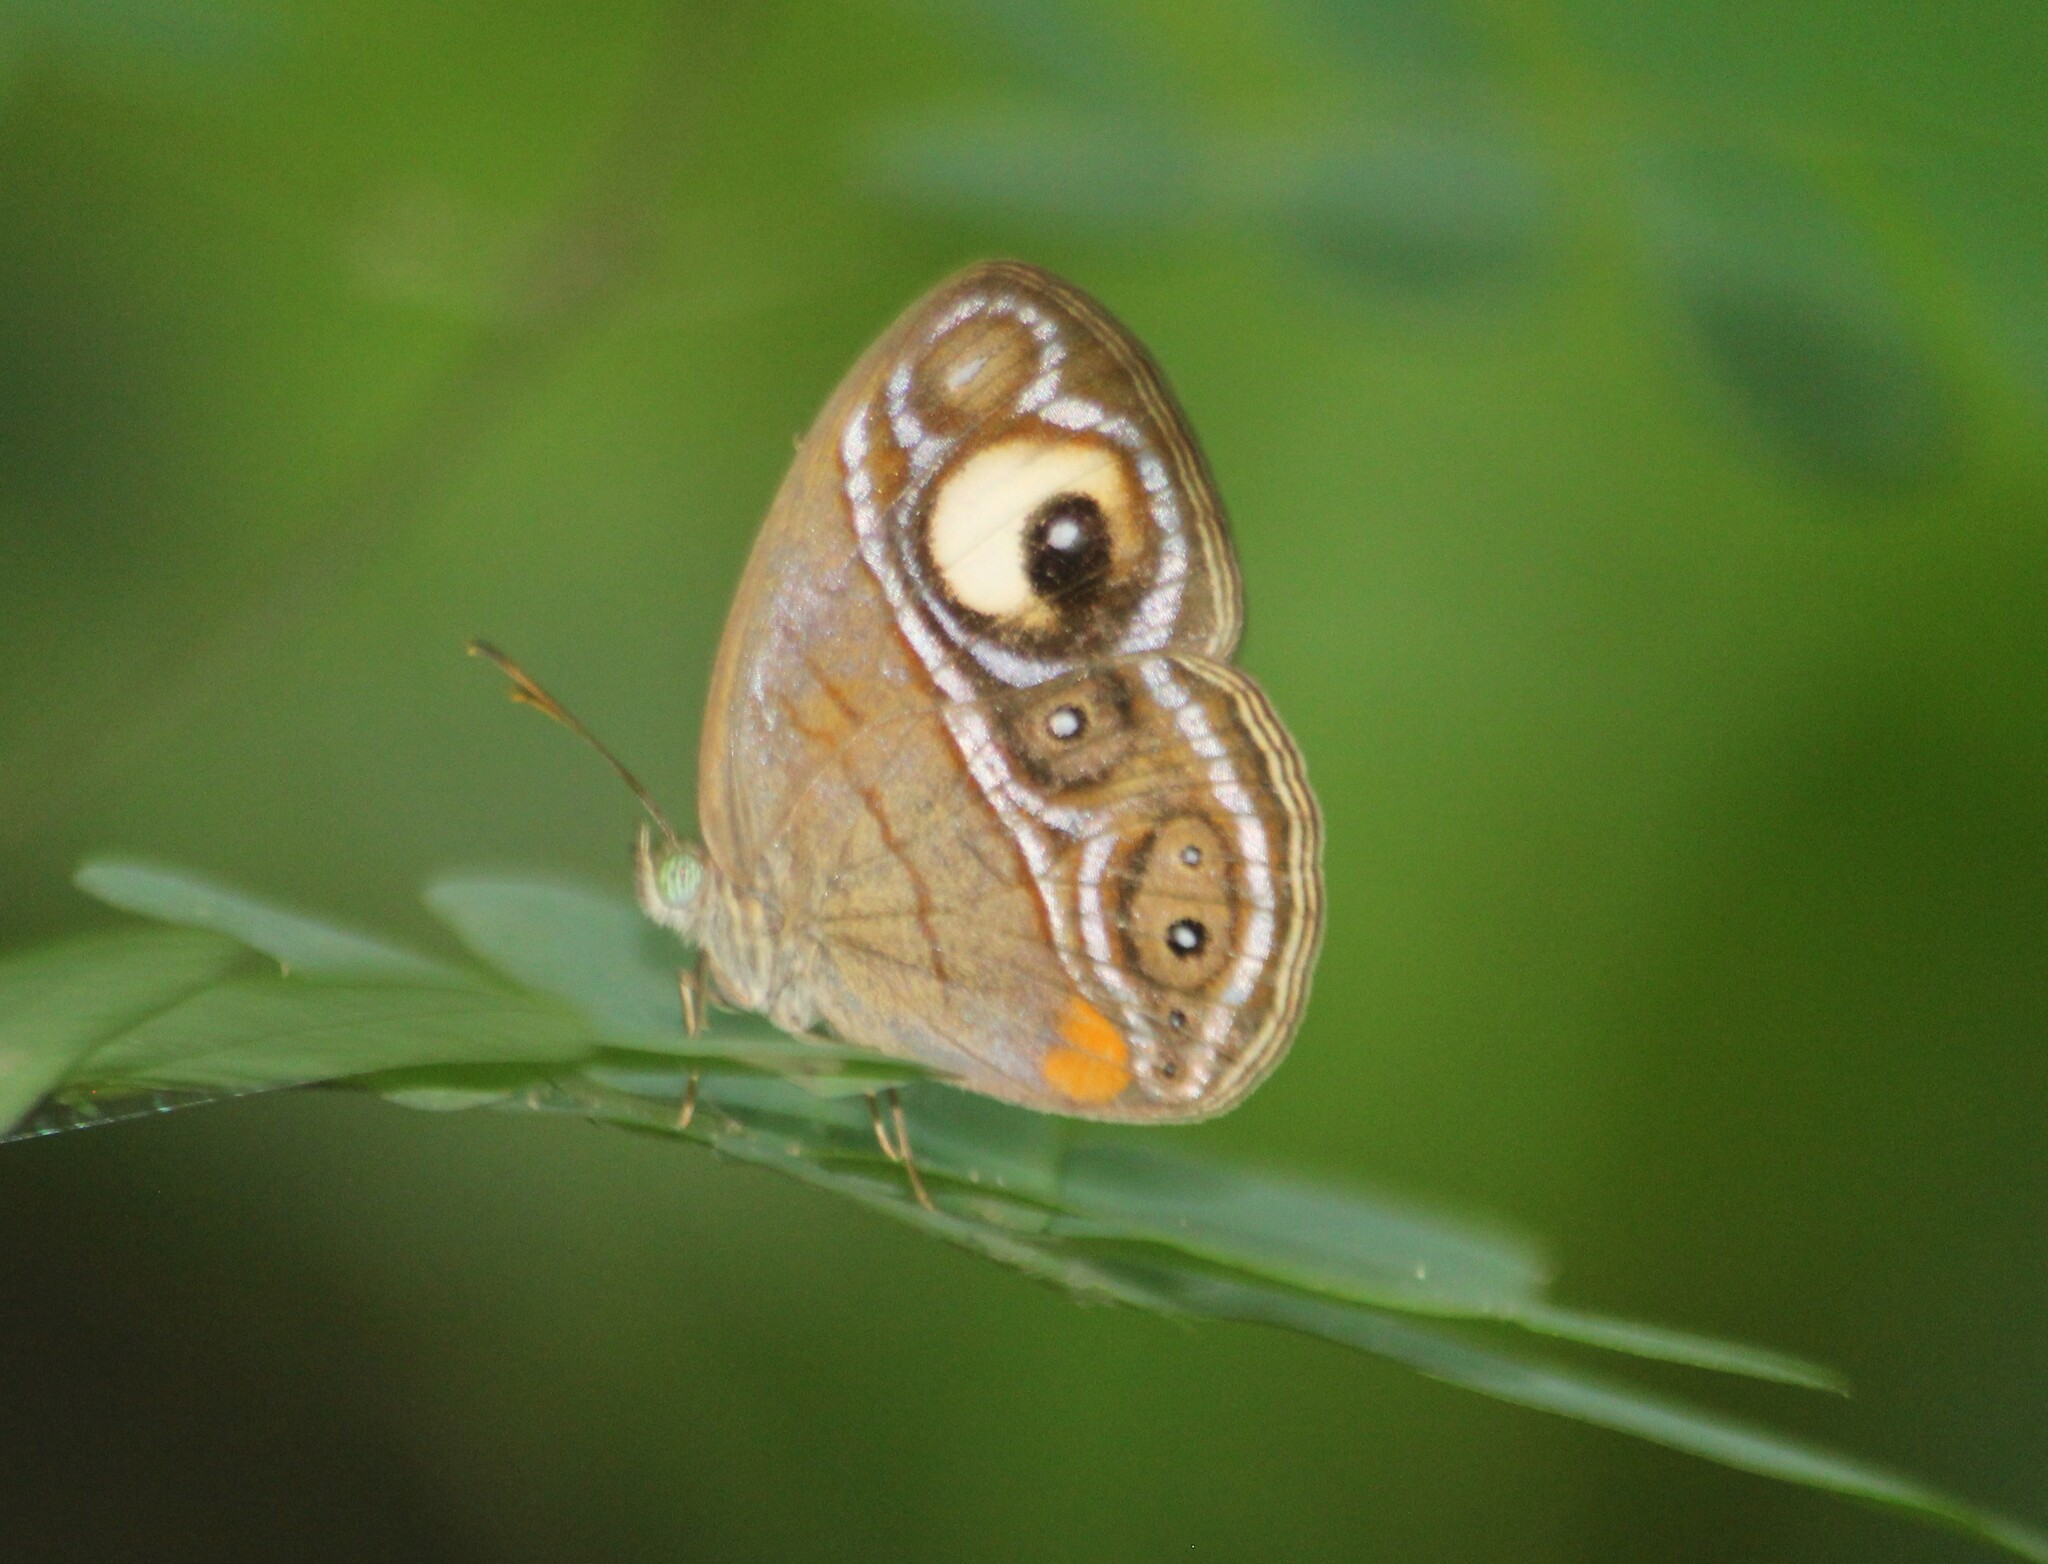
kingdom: Animalia
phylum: Arthropoda
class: Insecta
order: Lepidoptera
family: Nymphalidae
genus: Mycalesis
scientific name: Mycalesis patnia
